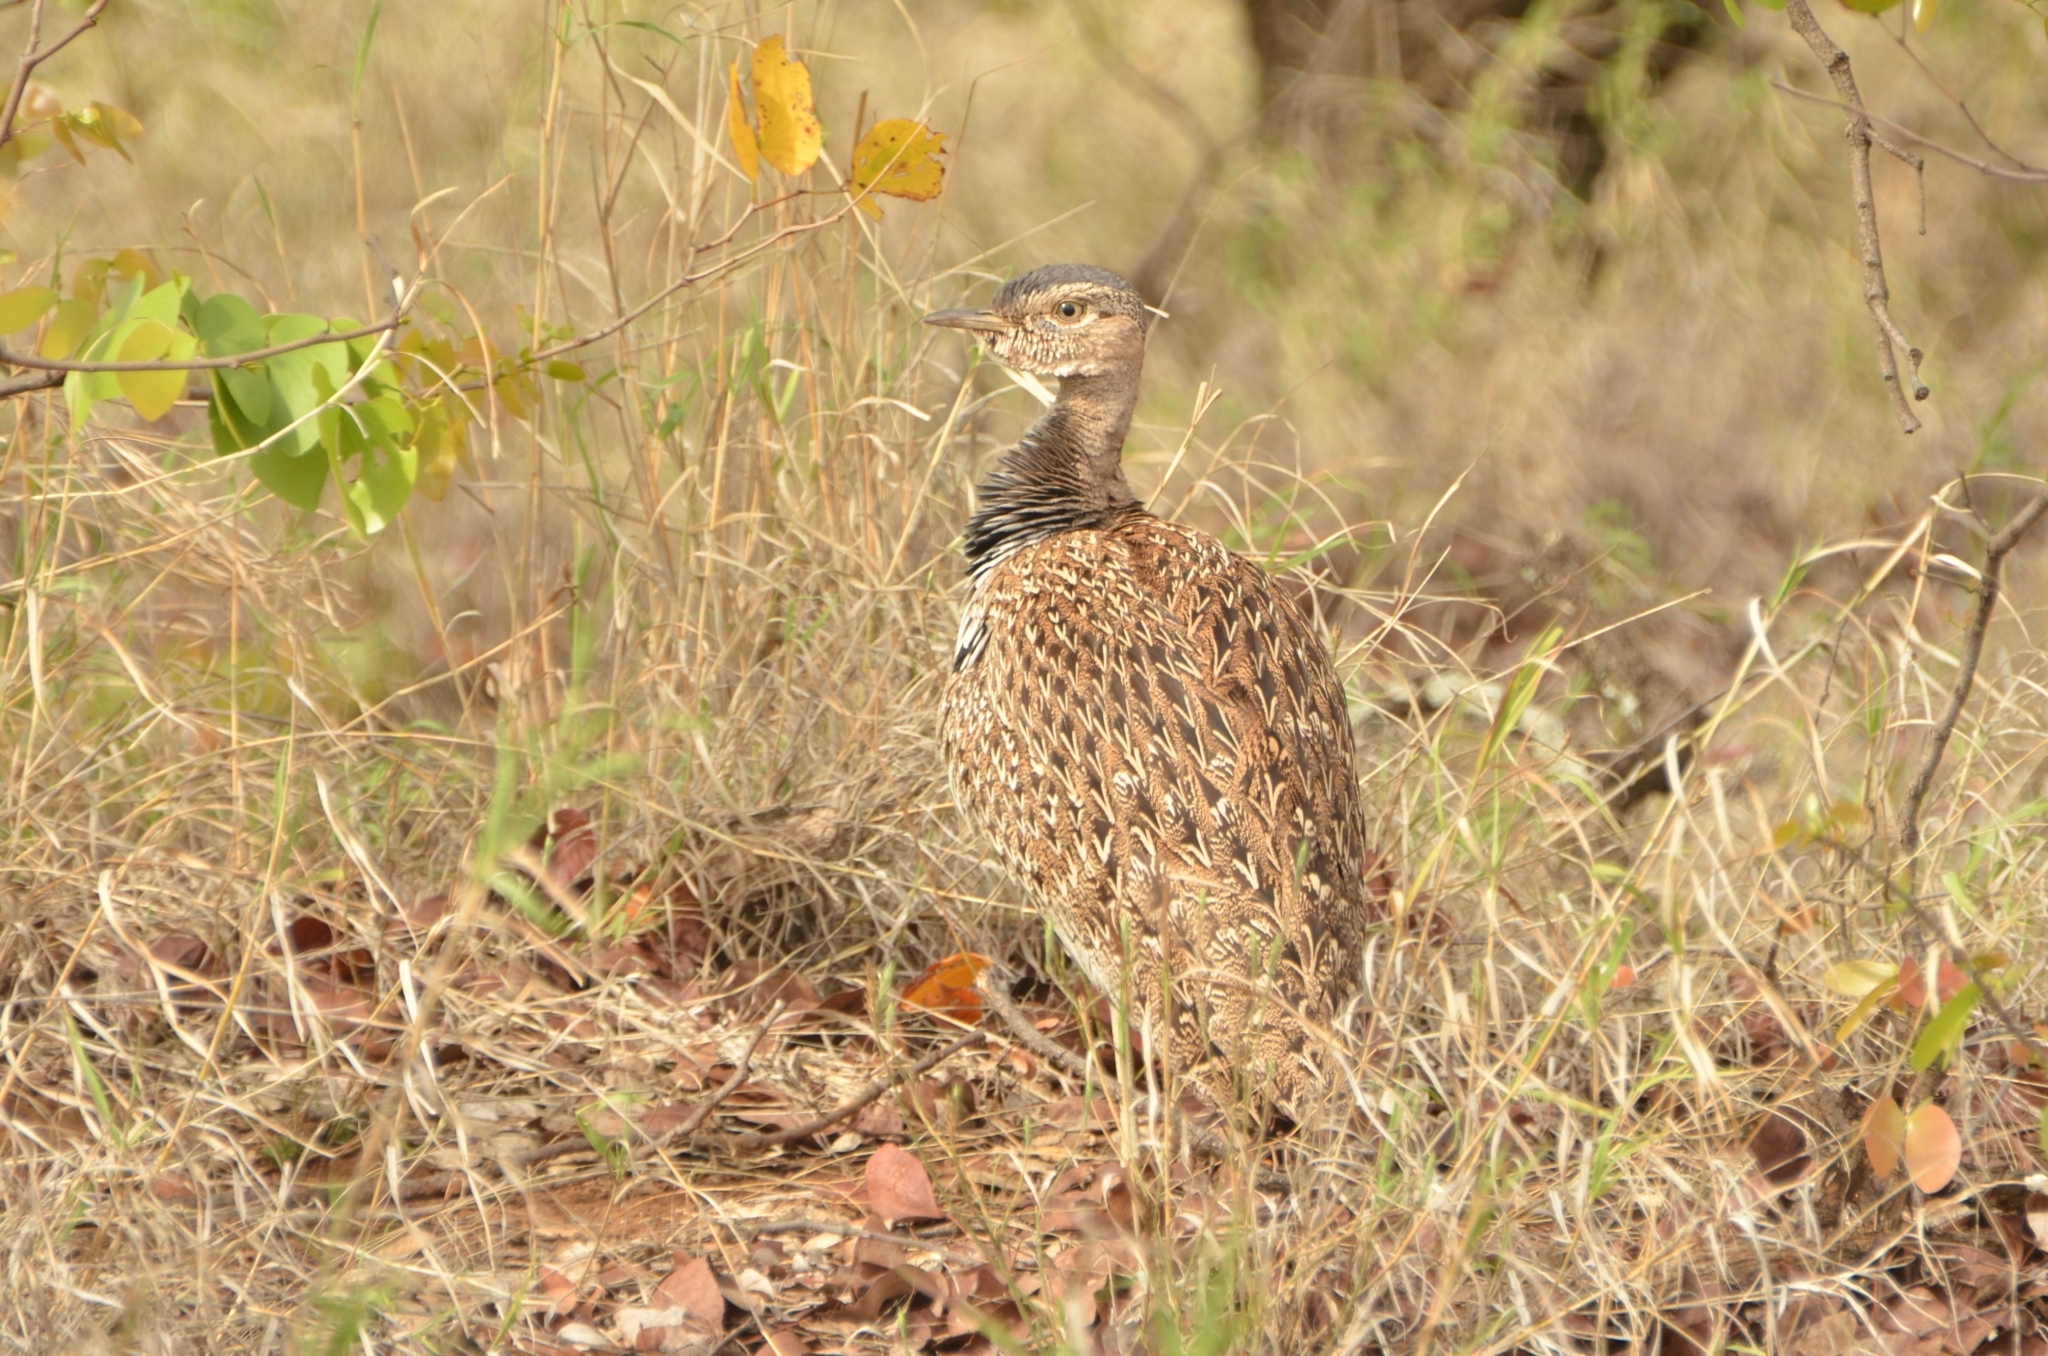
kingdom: Animalia
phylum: Chordata
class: Aves
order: Otidiformes
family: Otididae
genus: Lophotis
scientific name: Lophotis ruficrista
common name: Red-crested korhaan
